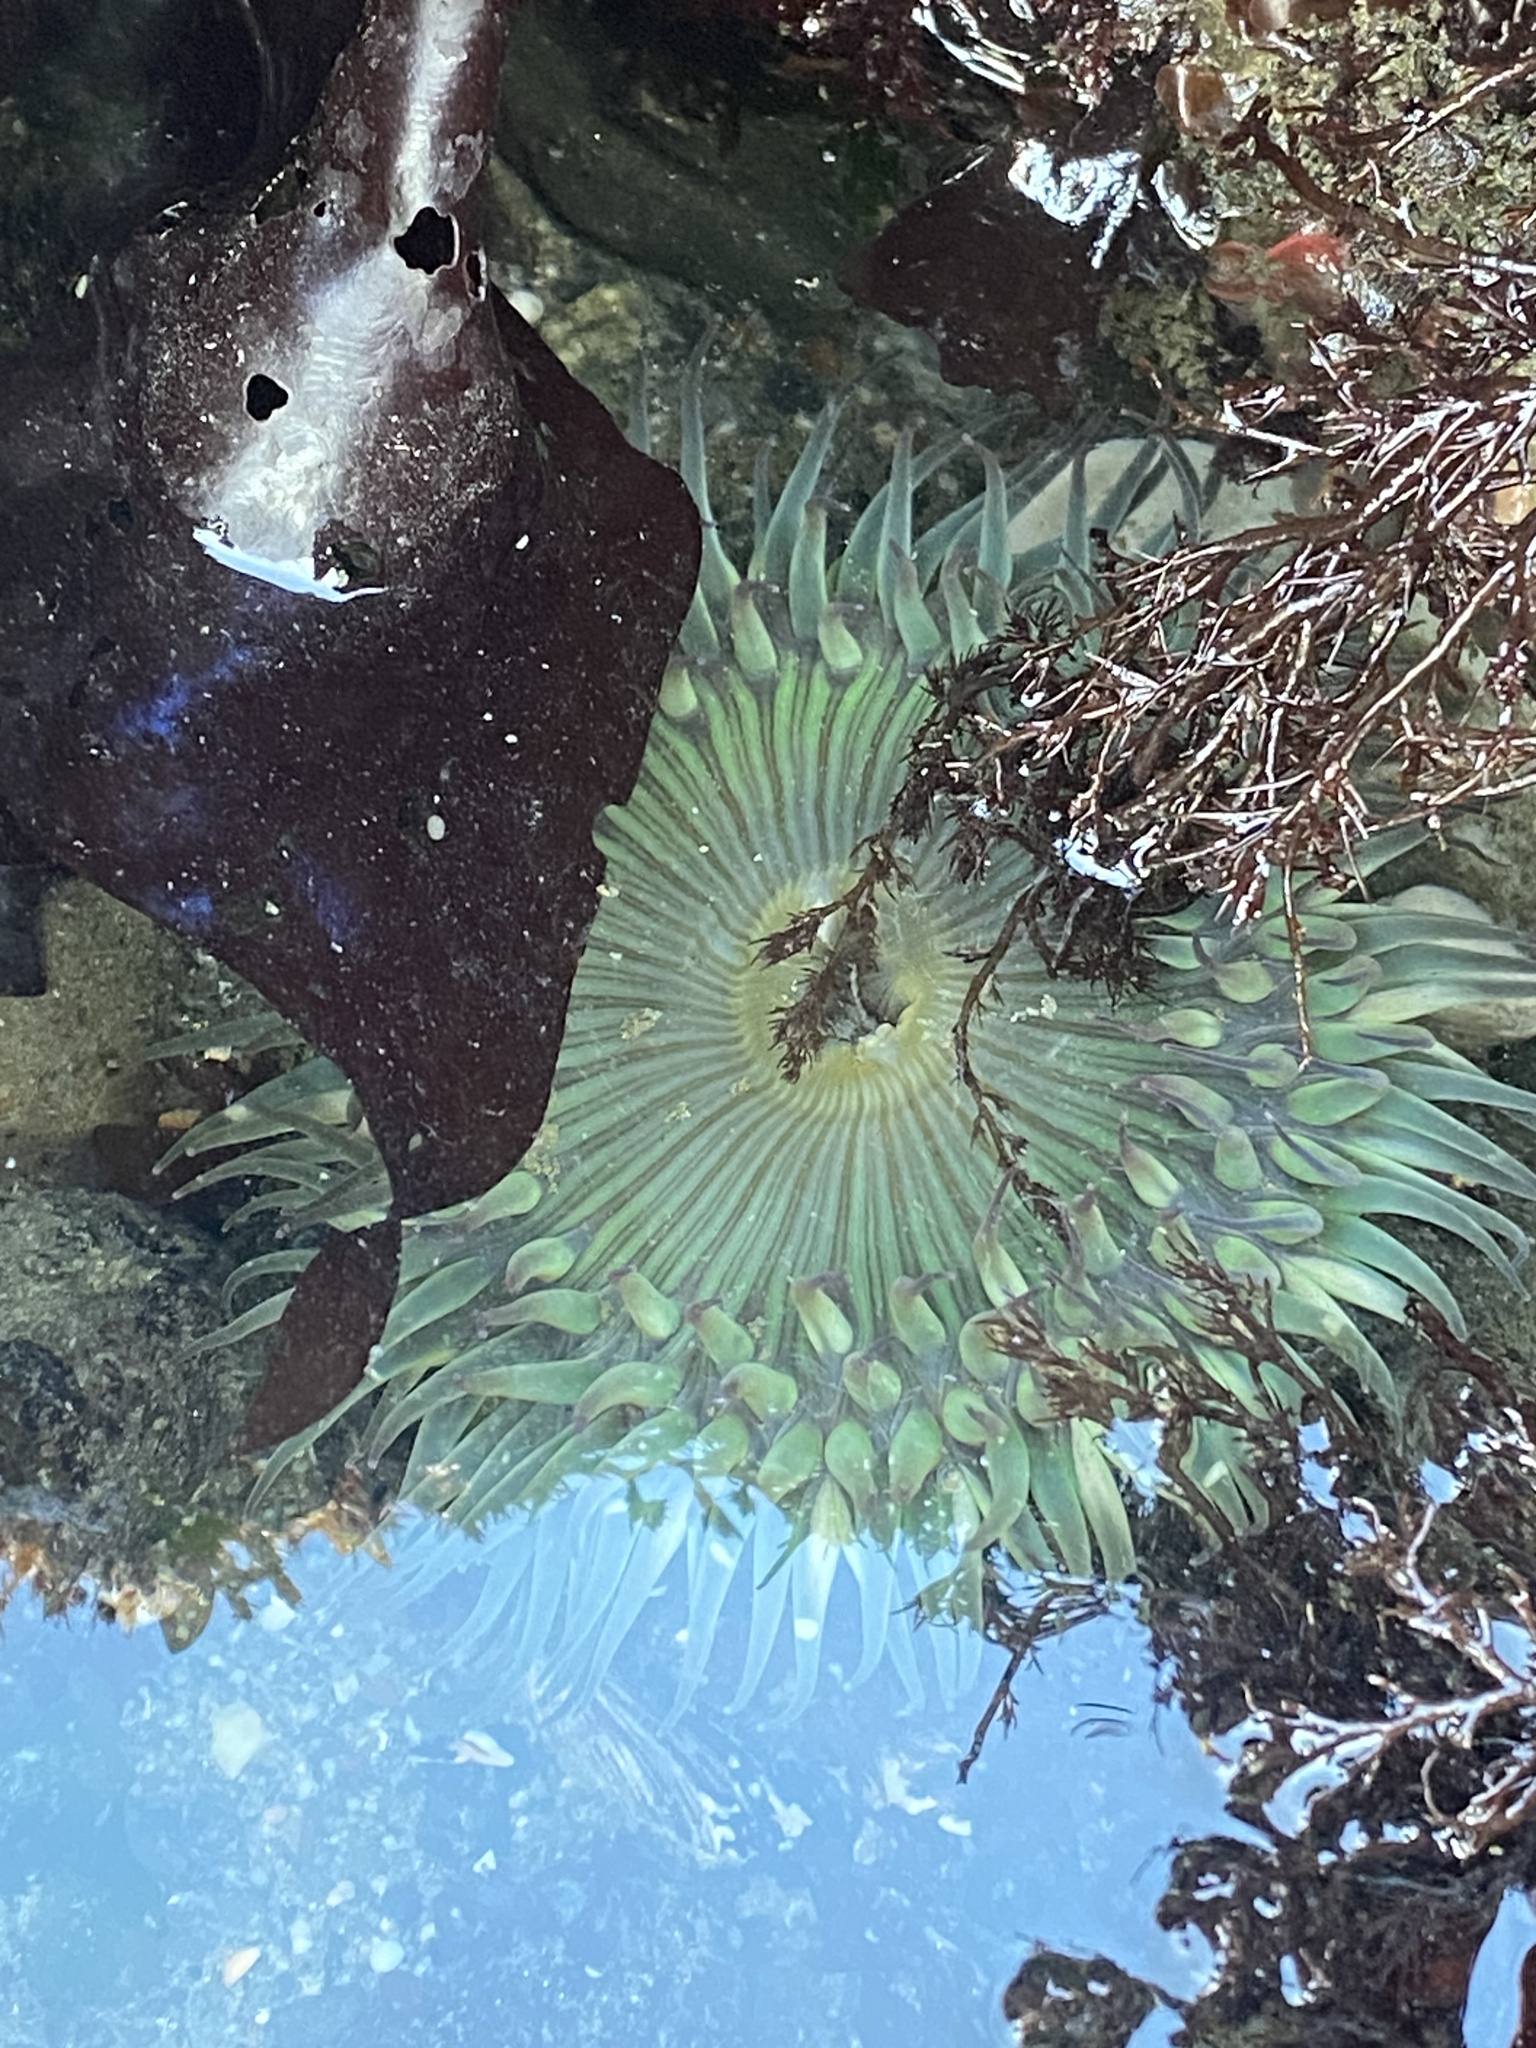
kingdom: Animalia
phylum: Cnidaria
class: Anthozoa
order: Actiniaria
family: Actiniidae
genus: Anthopleura
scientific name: Anthopleura sola
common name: Sun anemone
